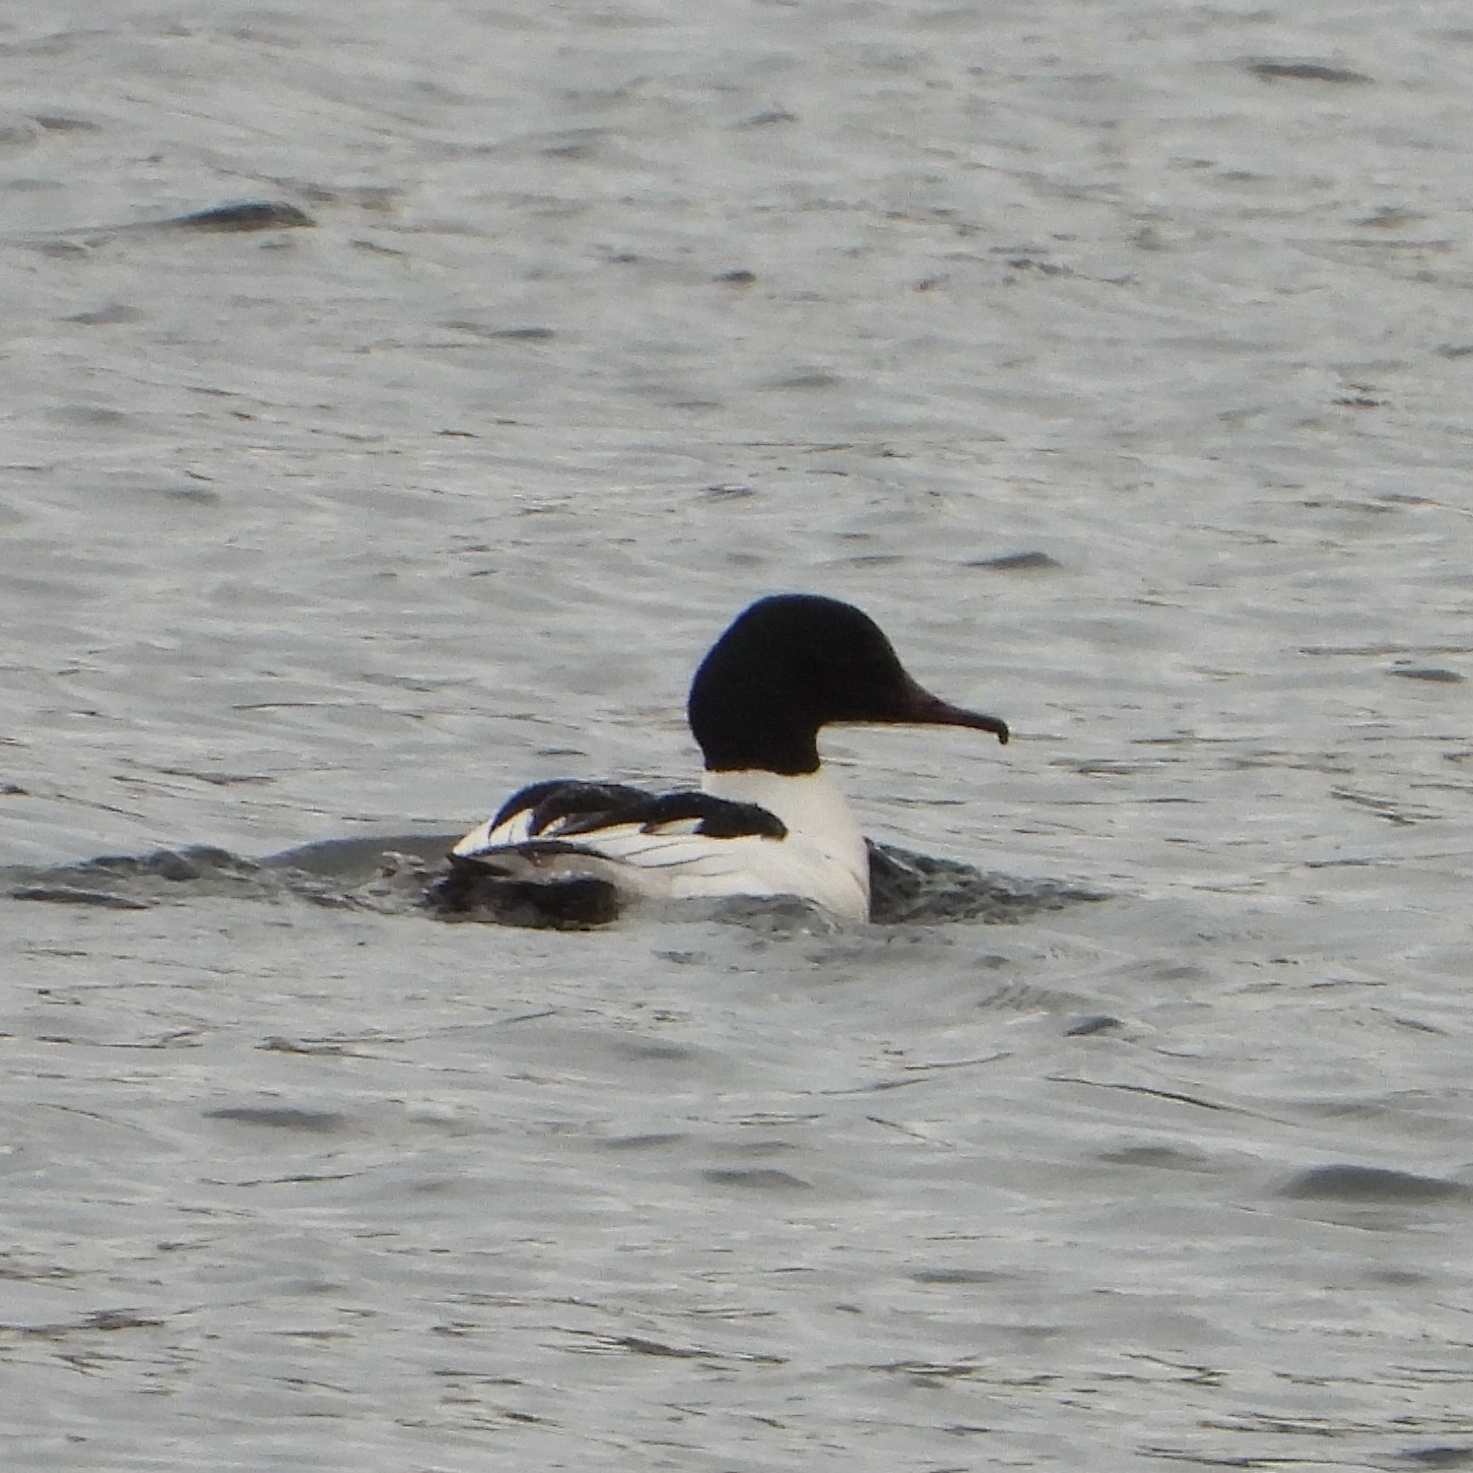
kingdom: Animalia
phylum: Chordata
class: Aves
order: Anseriformes
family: Anatidae
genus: Mergus
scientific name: Mergus merganser
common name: Common merganser
